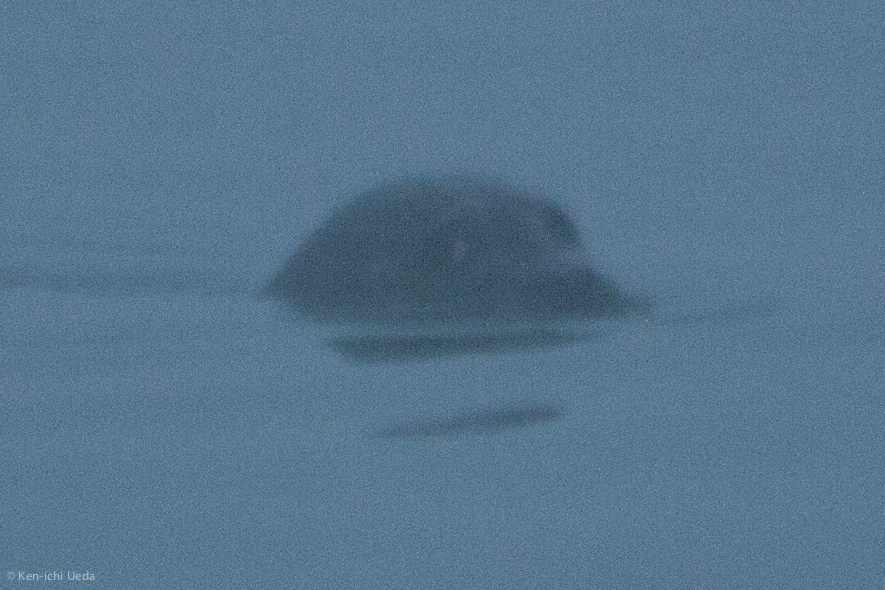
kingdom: Animalia
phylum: Chordata
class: Mammalia
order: Carnivora
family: Phocidae
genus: Phoca
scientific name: Phoca vitulina
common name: Harbor seal
